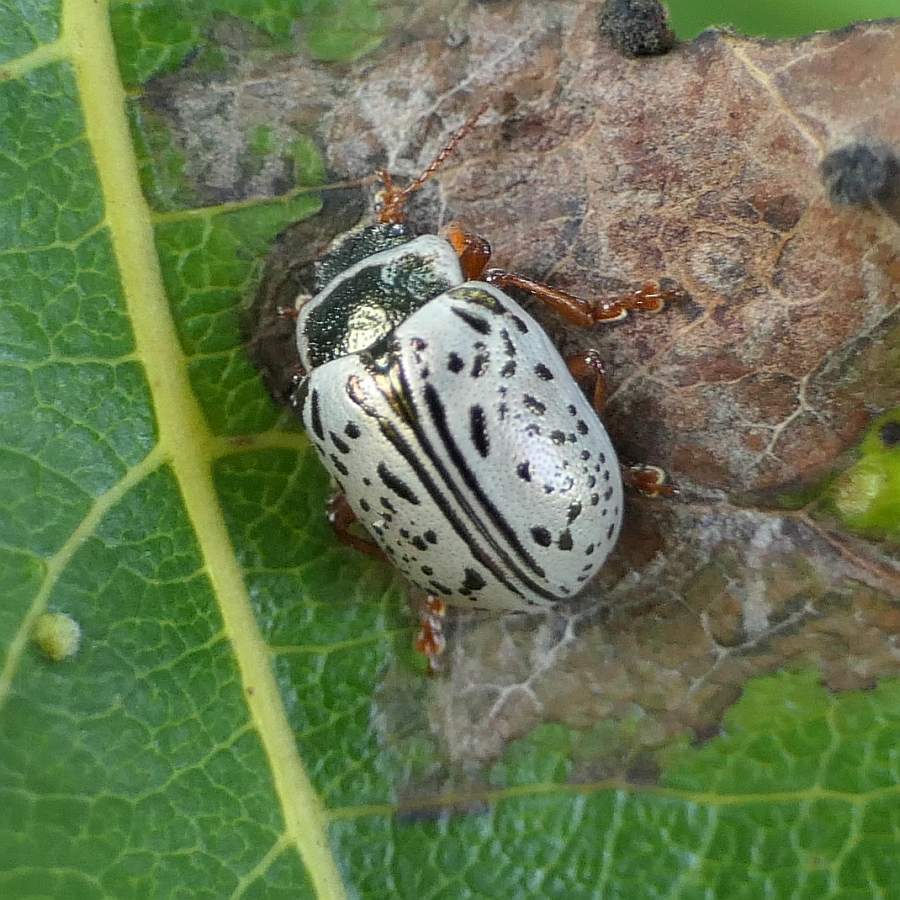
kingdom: Animalia
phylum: Arthropoda
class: Insecta
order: Coleoptera
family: Chrysomelidae
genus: Calligrapha
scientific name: Calligrapha multipunctata
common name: Common willow calligrapher beetle
